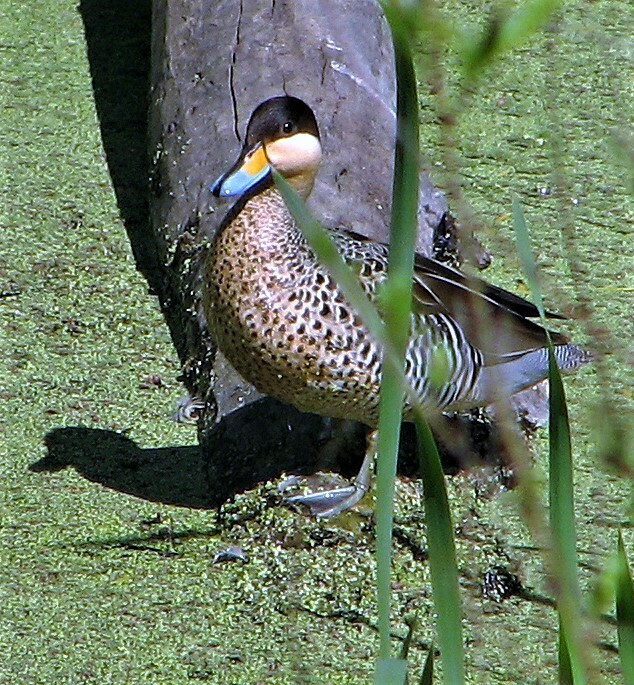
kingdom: Animalia
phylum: Chordata
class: Aves
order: Anseriformes
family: Anatidae
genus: Spatula
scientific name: Spatula versicolor
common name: Silver teal
